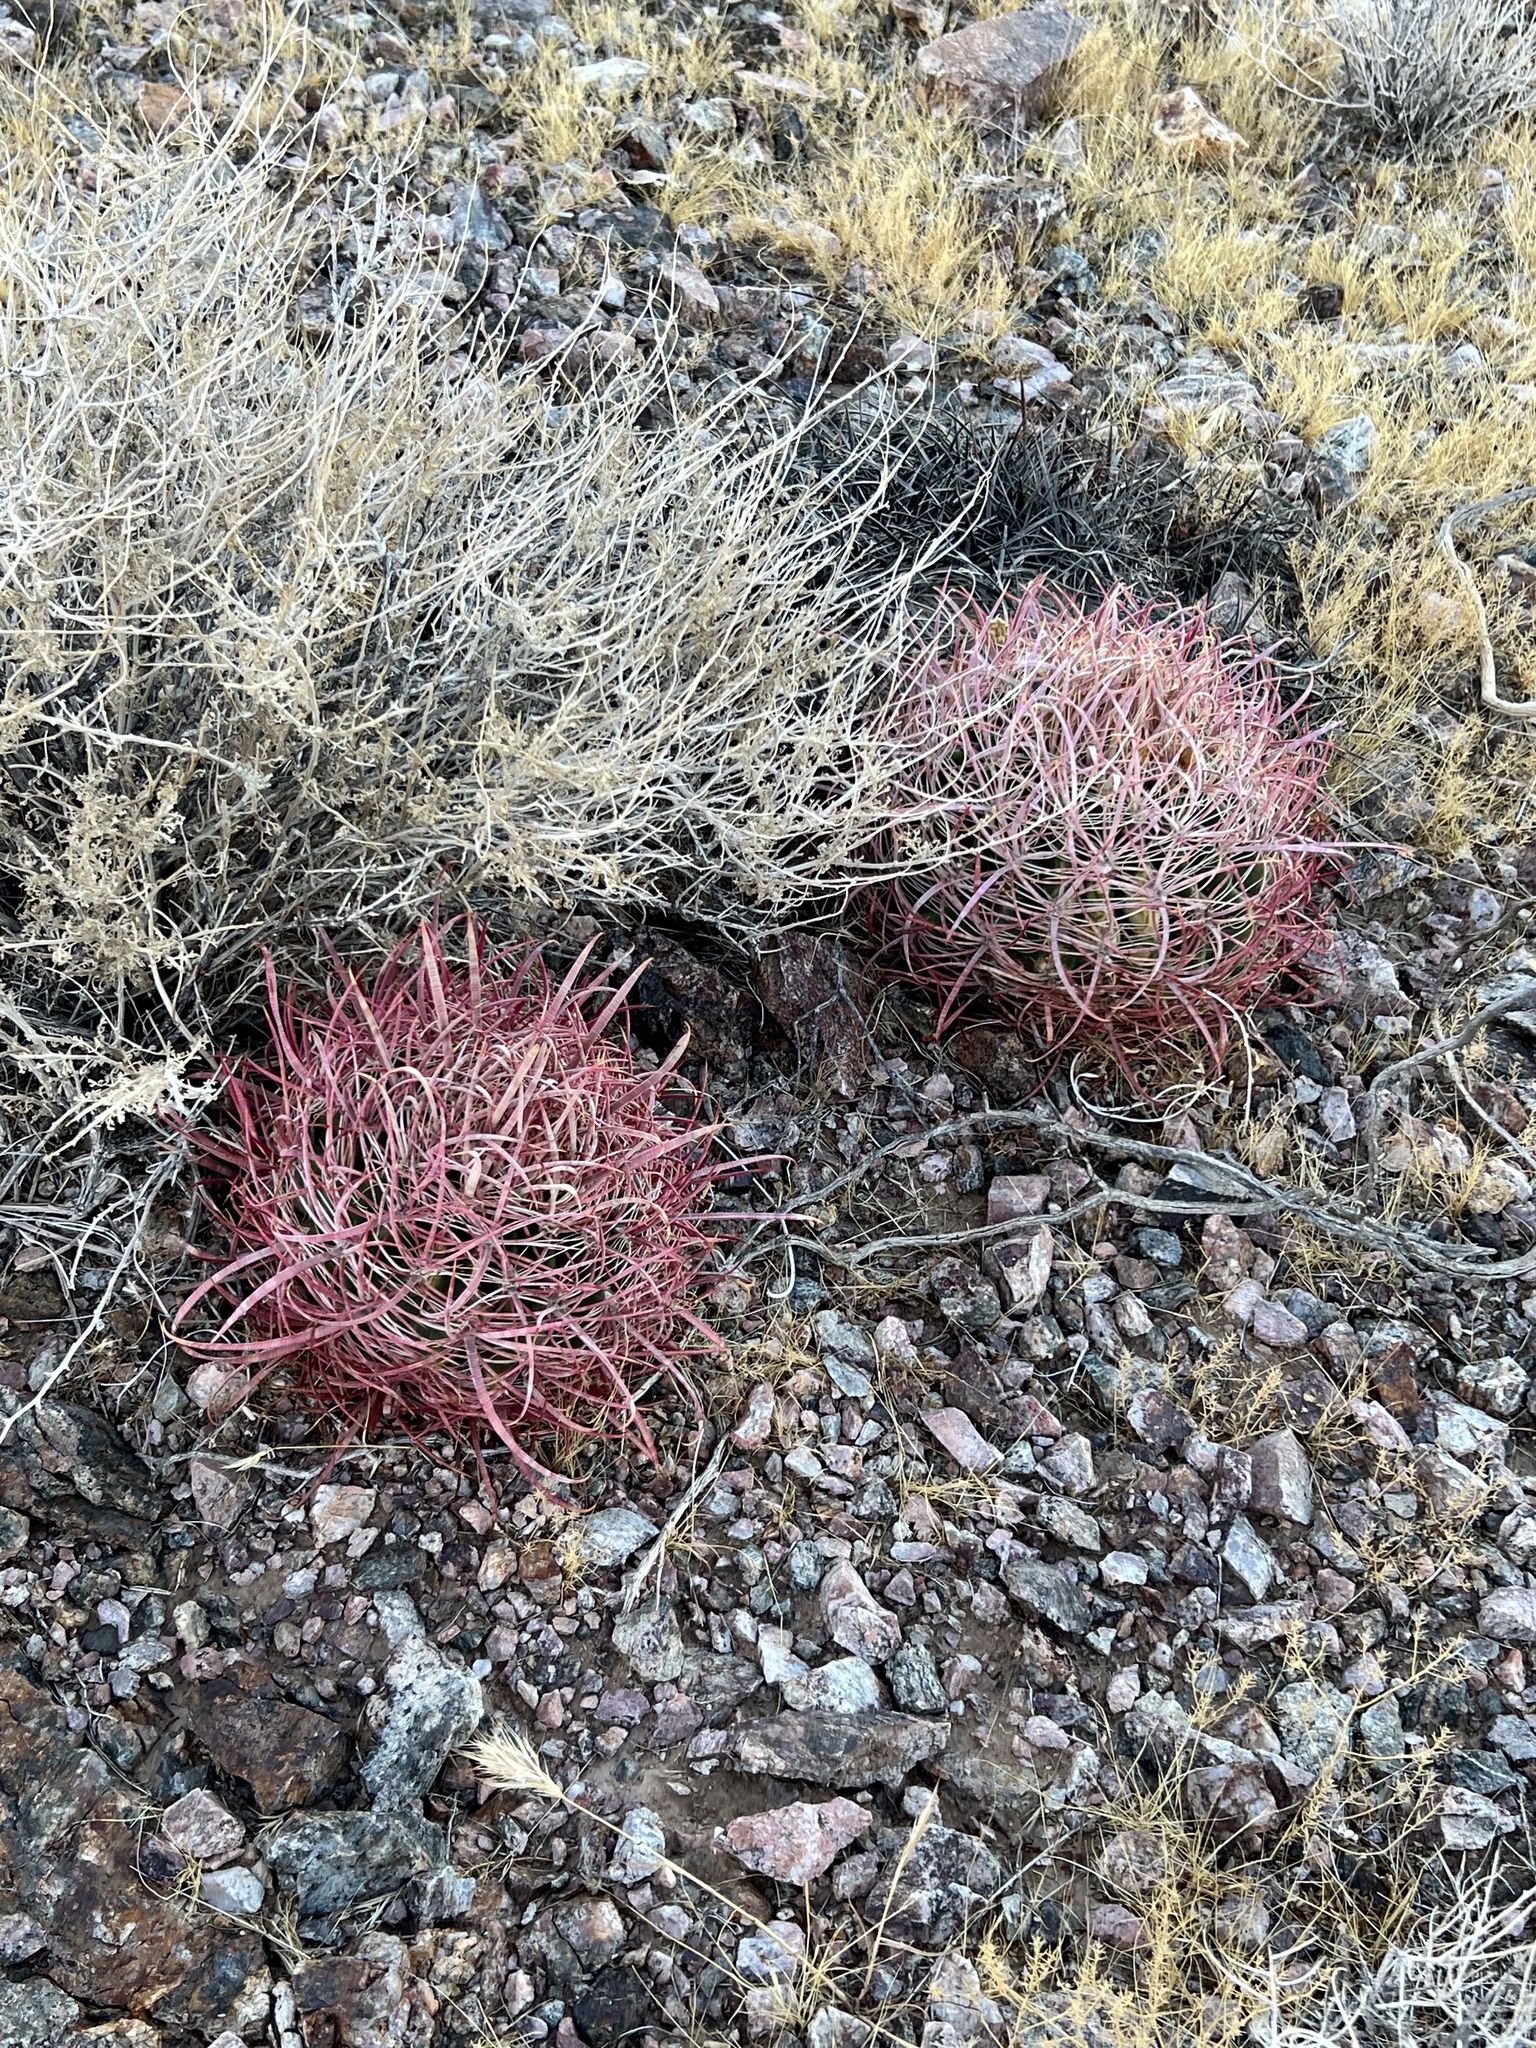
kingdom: Plantae
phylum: Tracheophyta
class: Magnoliopsida
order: Caryophyllales
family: Cactaceae
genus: Ferocactus
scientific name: Ferocactus cylindraceus
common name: California barrel cactus
